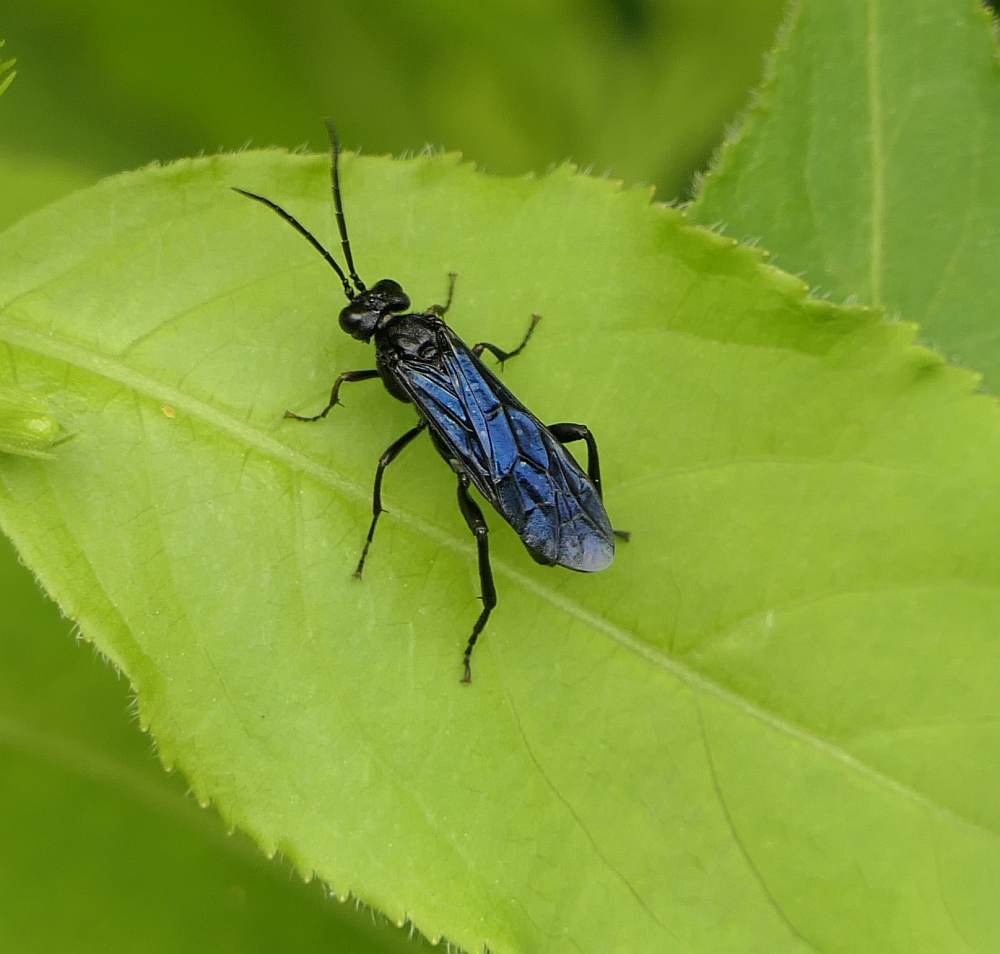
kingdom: Animalia
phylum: Arthropoda
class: Insecta
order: Hymenoptera
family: Tenthredinidae
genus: Lagium
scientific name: Lagium atroviolaceum
